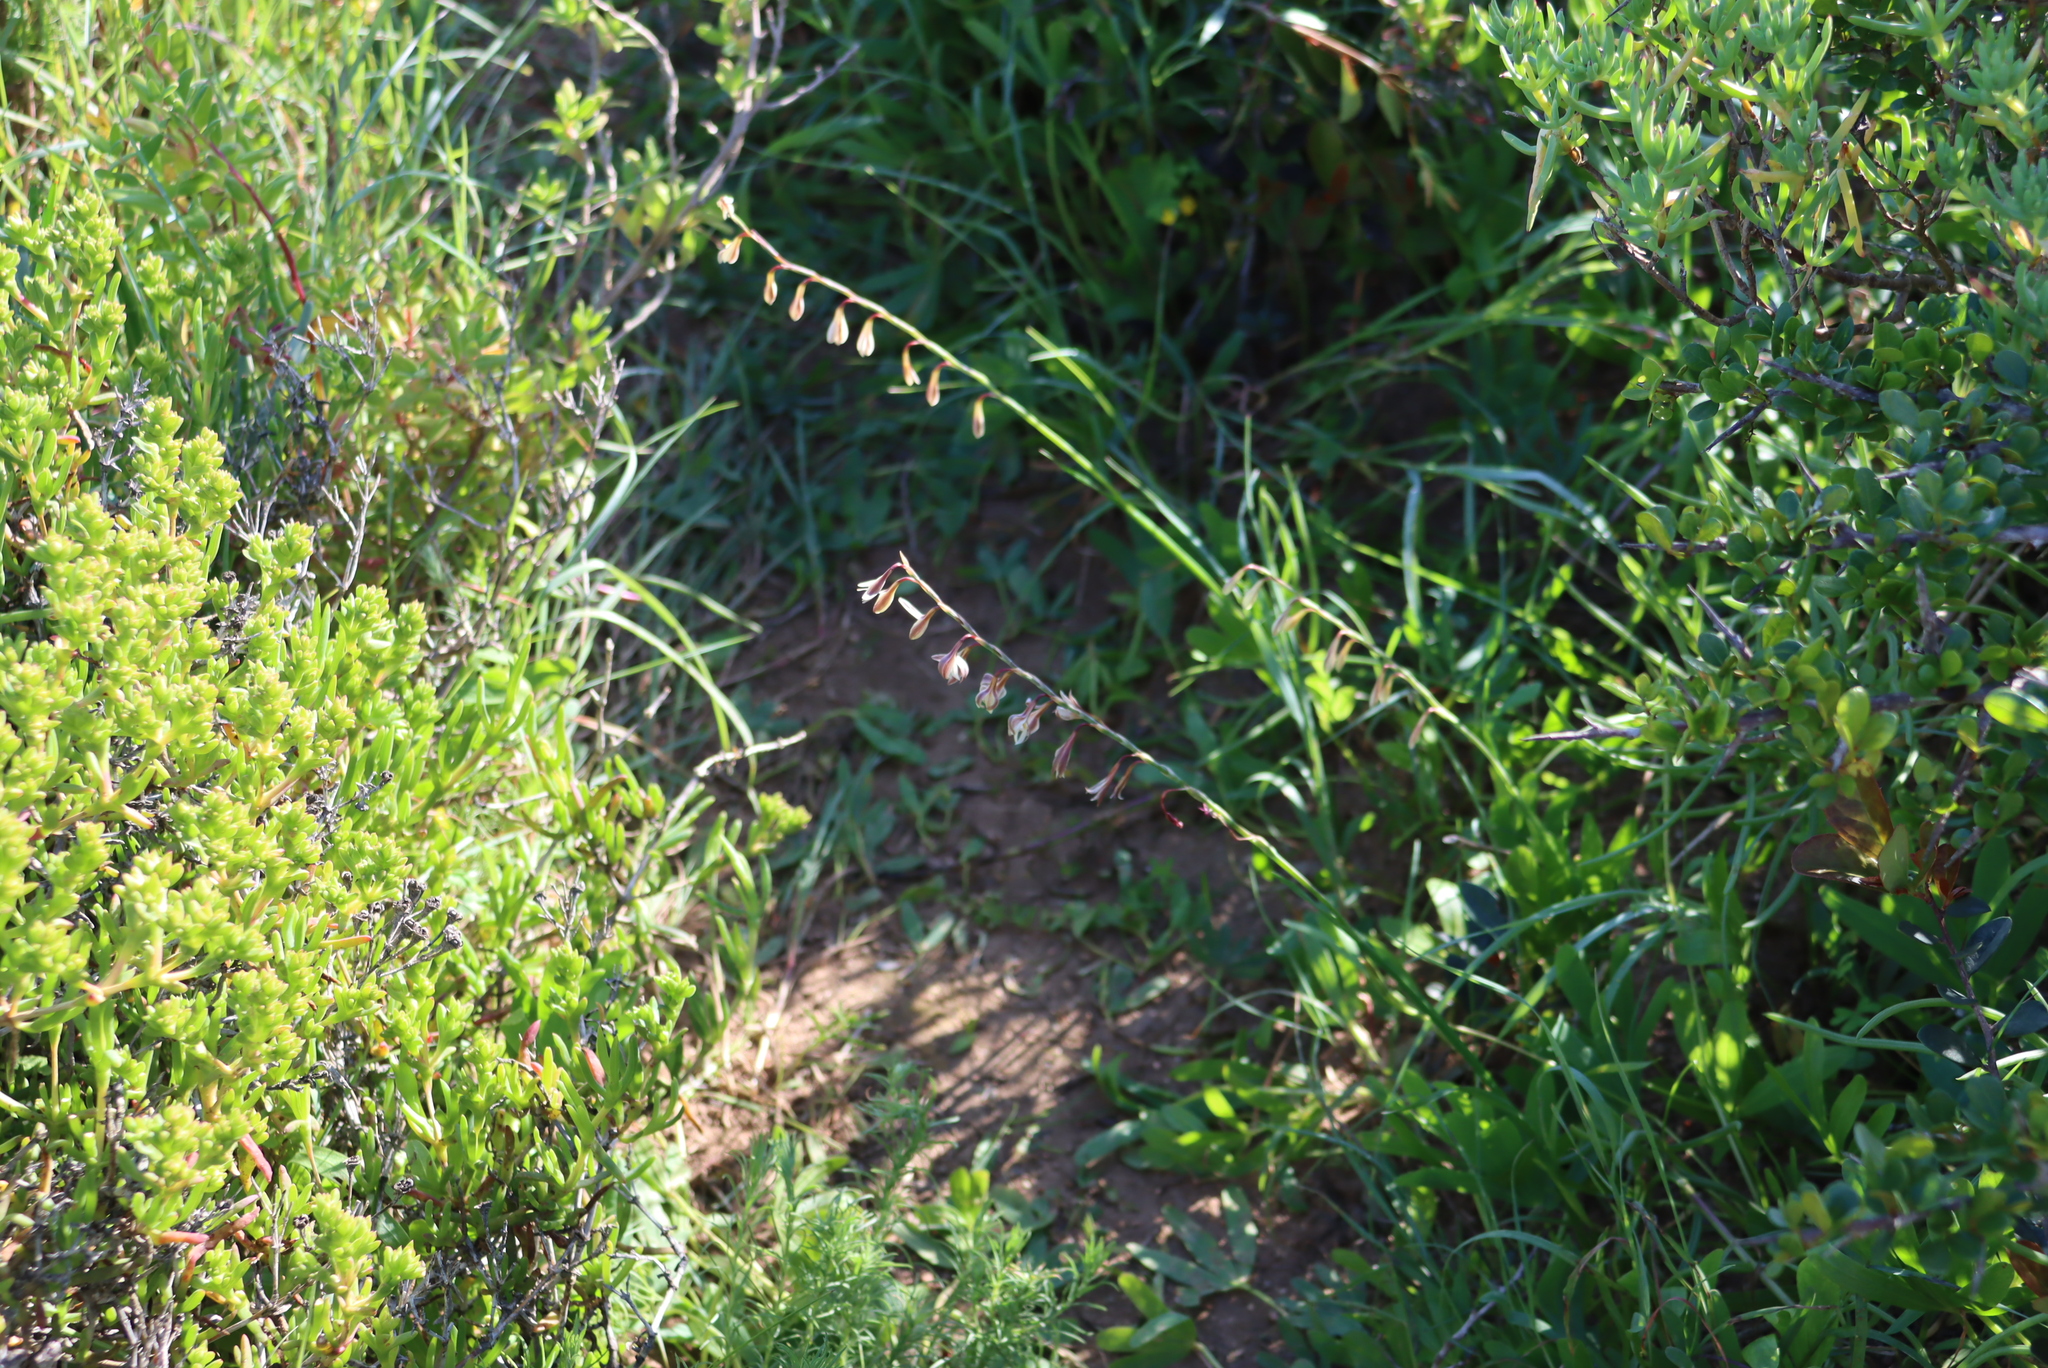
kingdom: Plantae
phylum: Tracheophyta
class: Liliopsida
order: Asparagales
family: Iridaceae
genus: Hesperantha
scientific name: Hesperantha radiata
